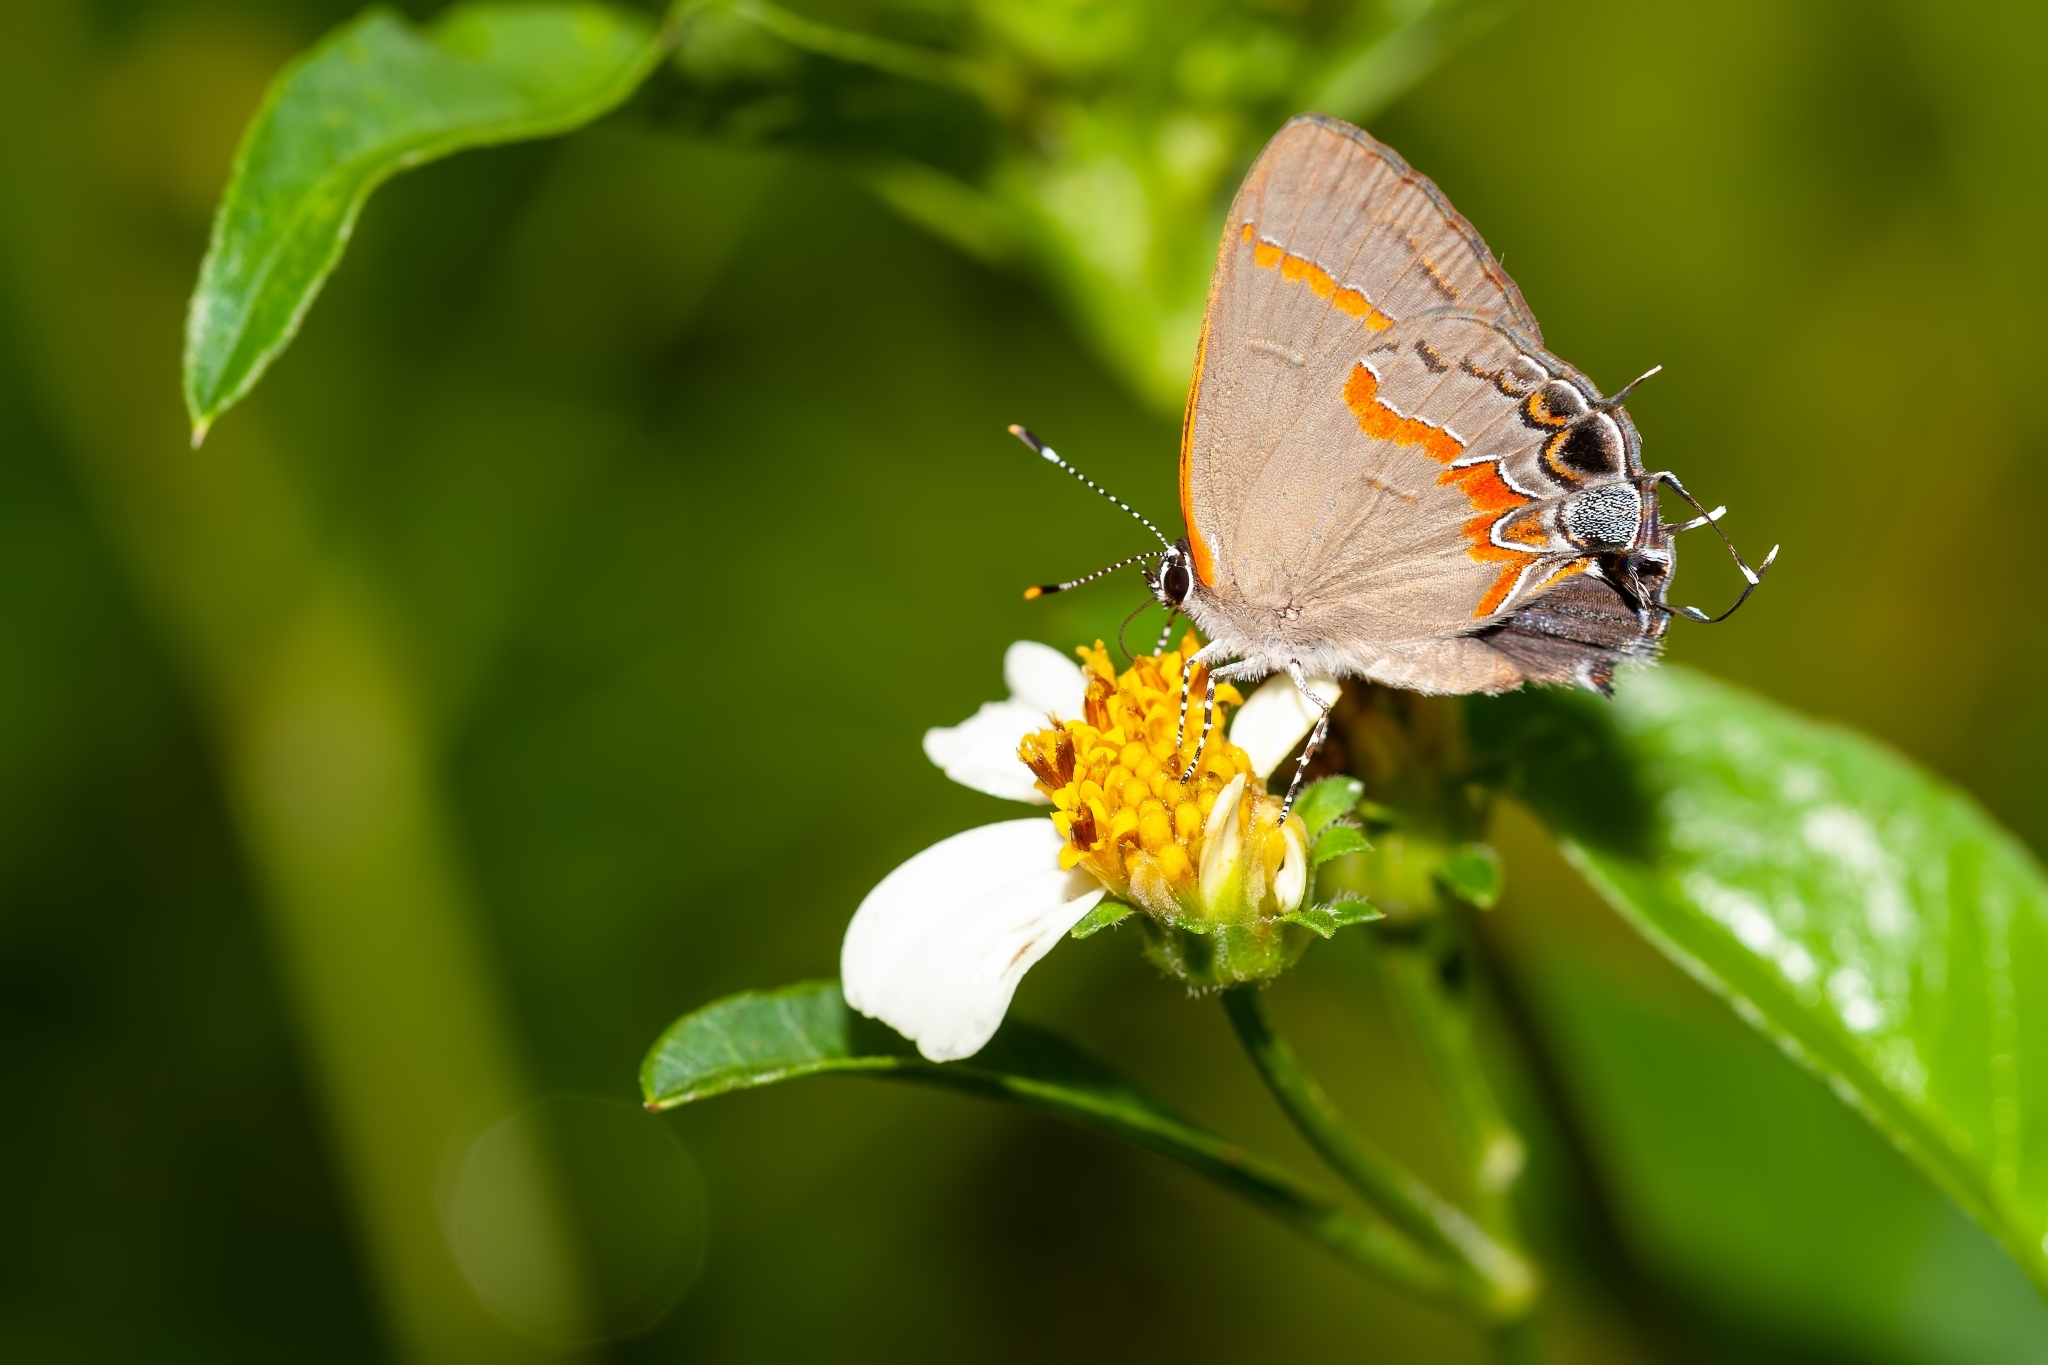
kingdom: Animalia
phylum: Arthropoda
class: Insecta
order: Lepidoptera
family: Lycaenidae
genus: Calycopis
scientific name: Calycopis cecrops
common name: Red-banded hairstreak
